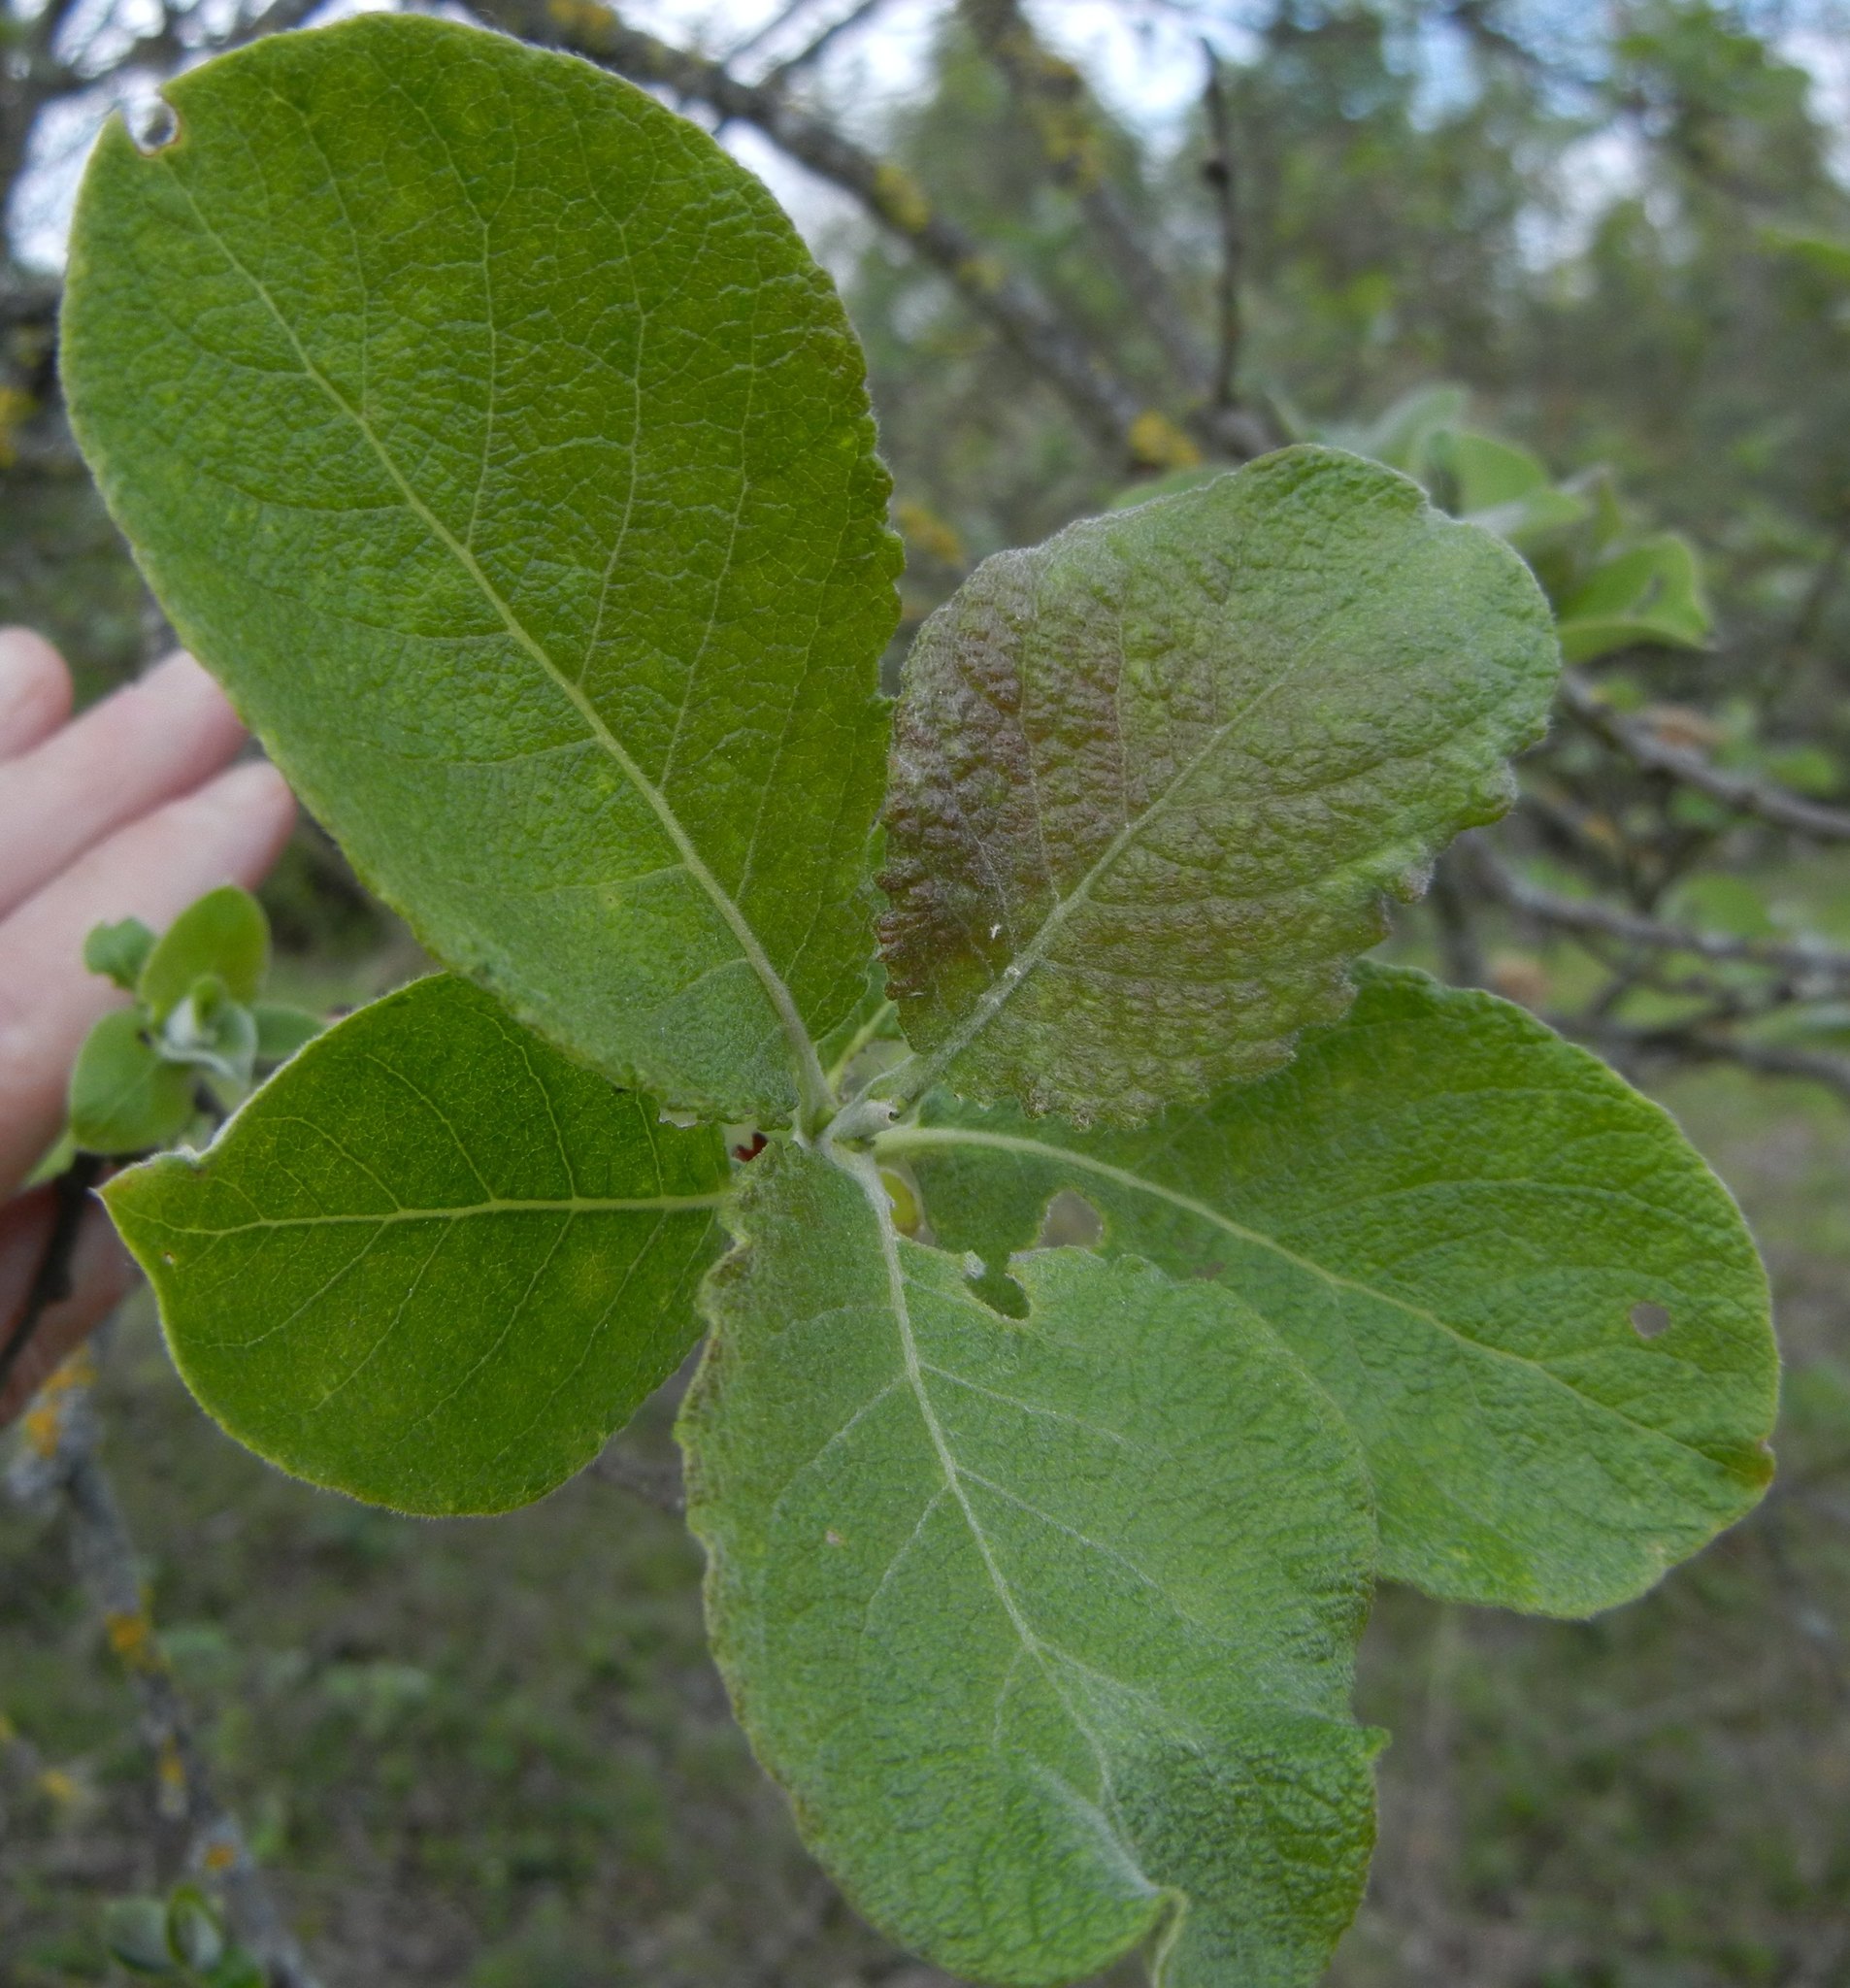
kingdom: Plantae
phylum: Tracheophyta
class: Magnoliopsida
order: Malpighiales
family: Salicaceae
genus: Salix
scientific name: Salix caprea
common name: Goat willow
